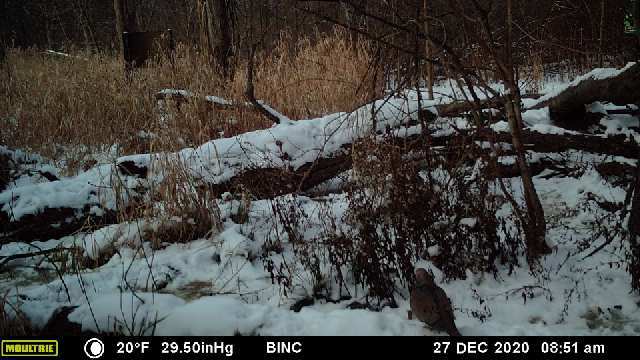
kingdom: Animalia
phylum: Chordata
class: Aves
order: Columbiformes
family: Columbidae
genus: Zenaida
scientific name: Zenaida macroura
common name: Mourning dove
